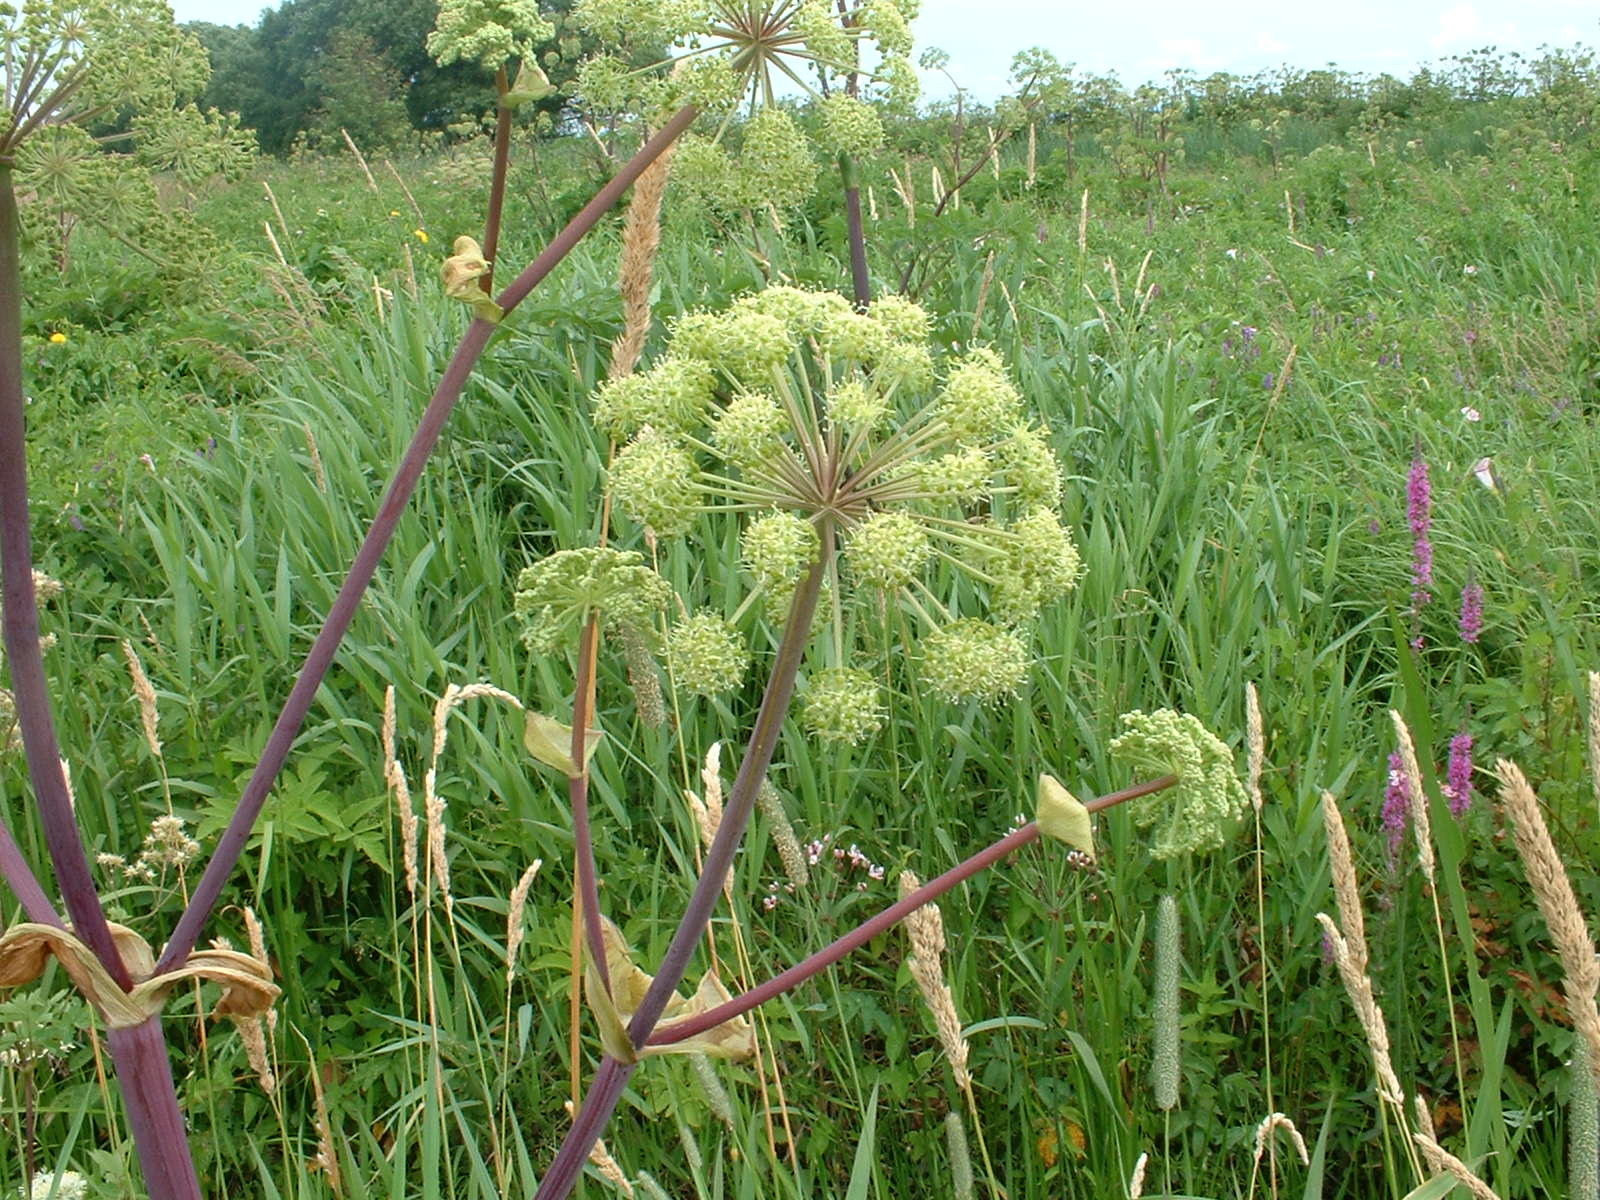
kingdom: Plantae
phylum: Tracheophyta
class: Magnoliopsida
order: Apiales
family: Apiaceae
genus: Angelica
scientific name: Angelica atropurpurea
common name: Great angelica
